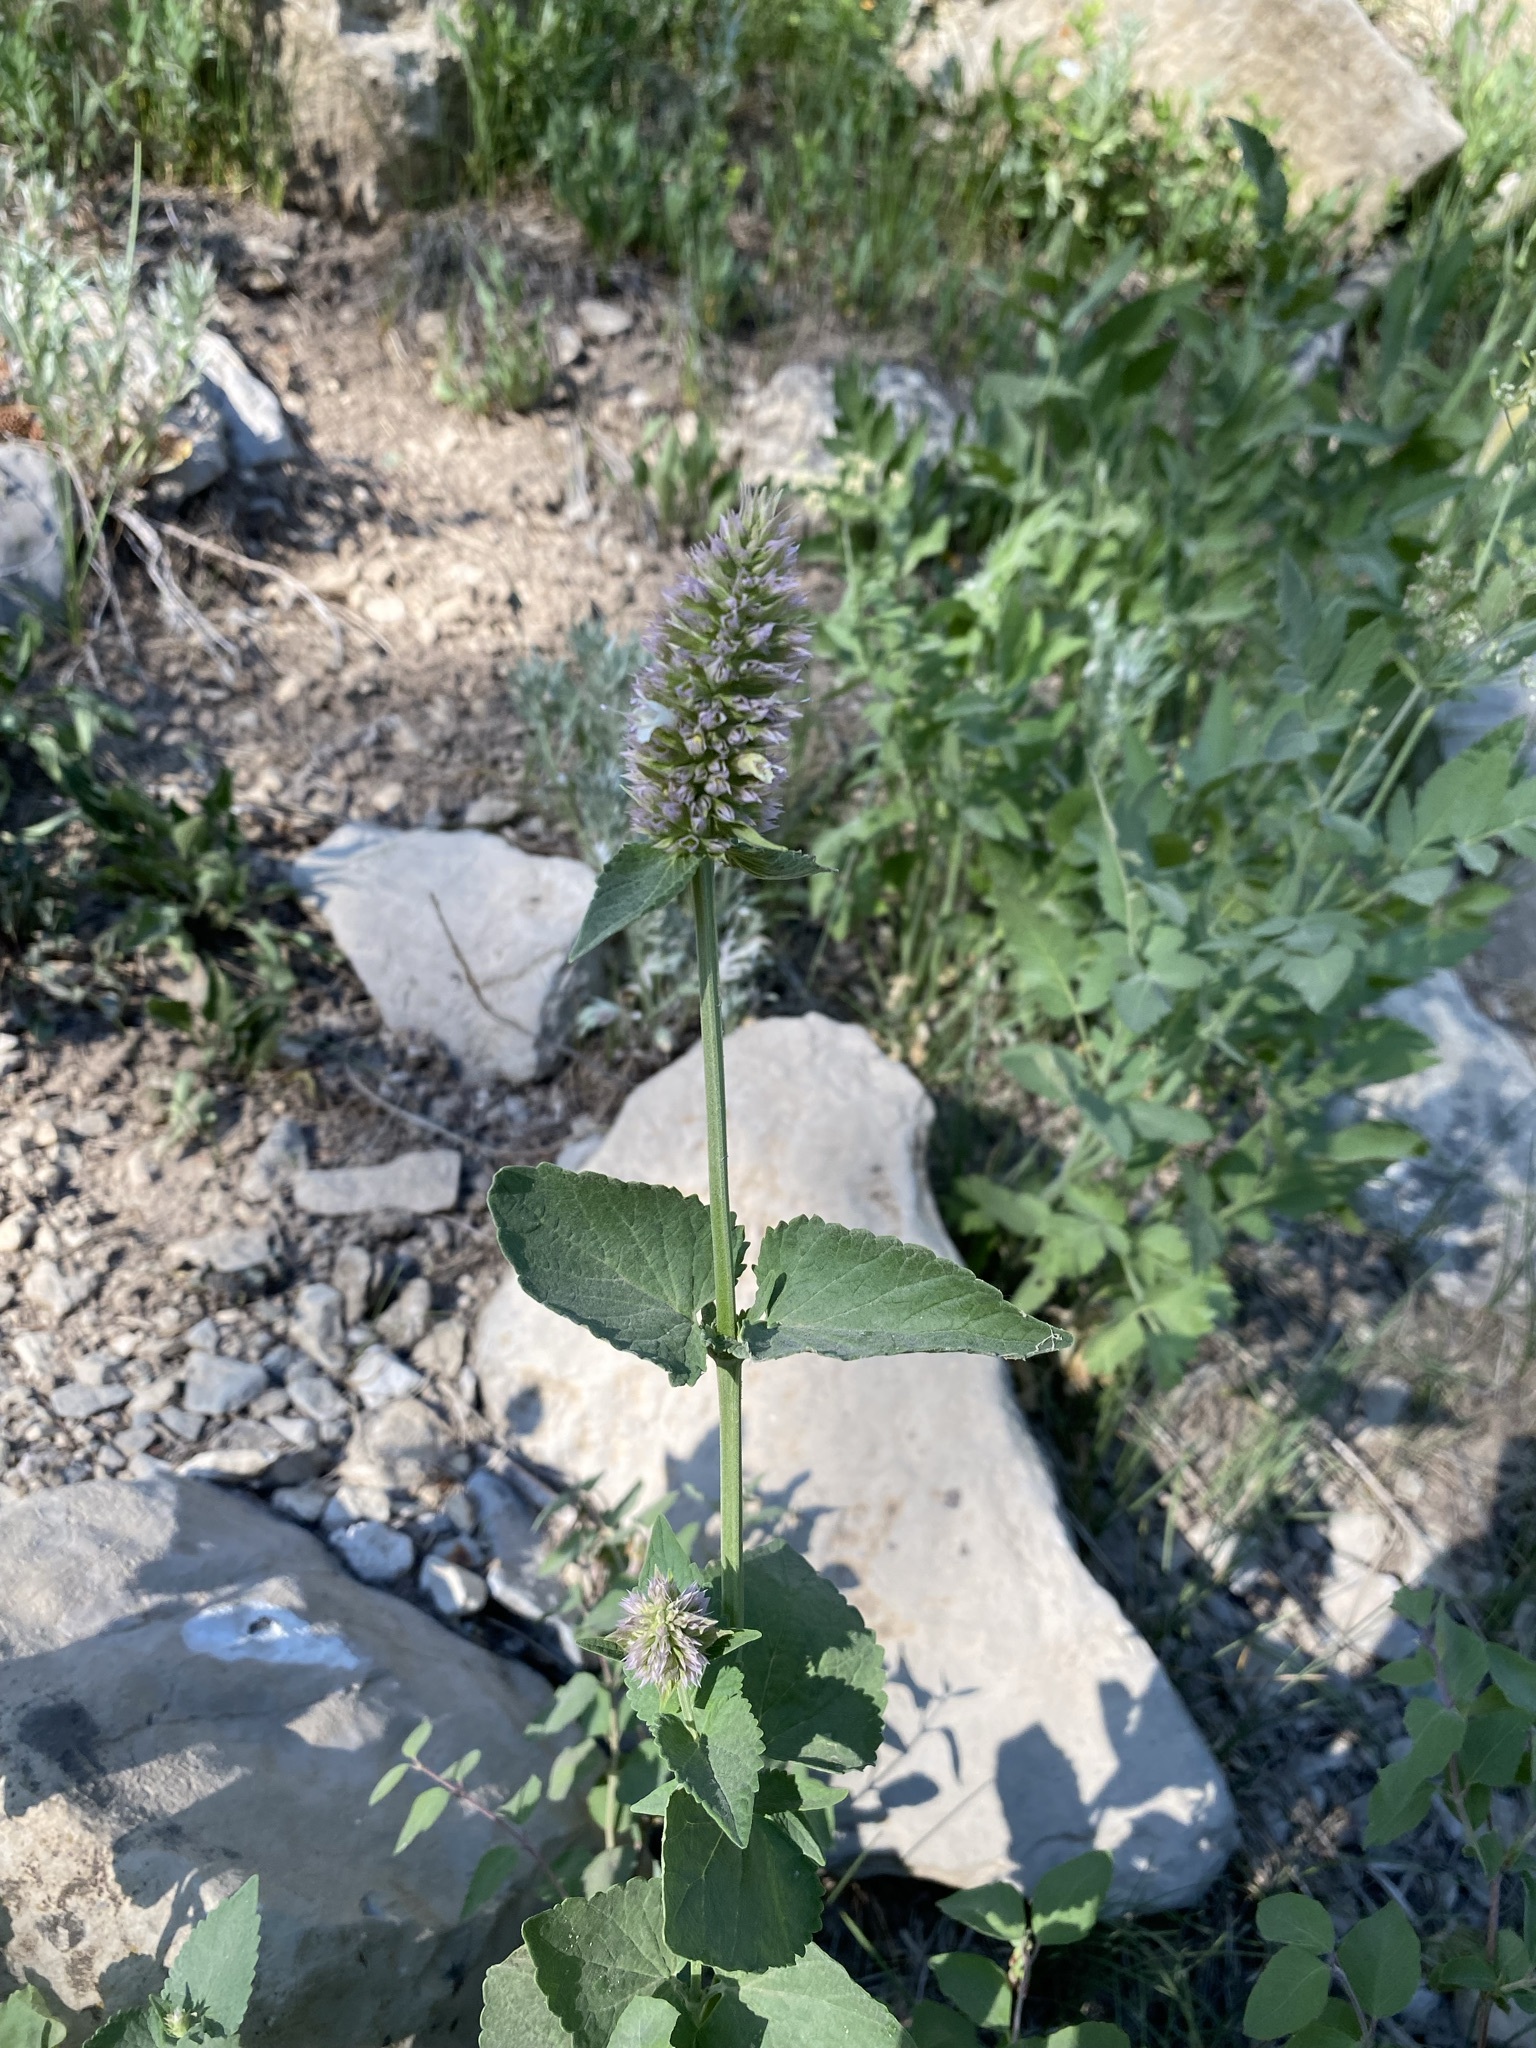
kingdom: Plantae
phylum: Tracheophyta
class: Magnoliopsida
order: Lamiales
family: Lamiaceae
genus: Agastache
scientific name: Agastache urticifolia
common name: Horsemint giant hyssop
